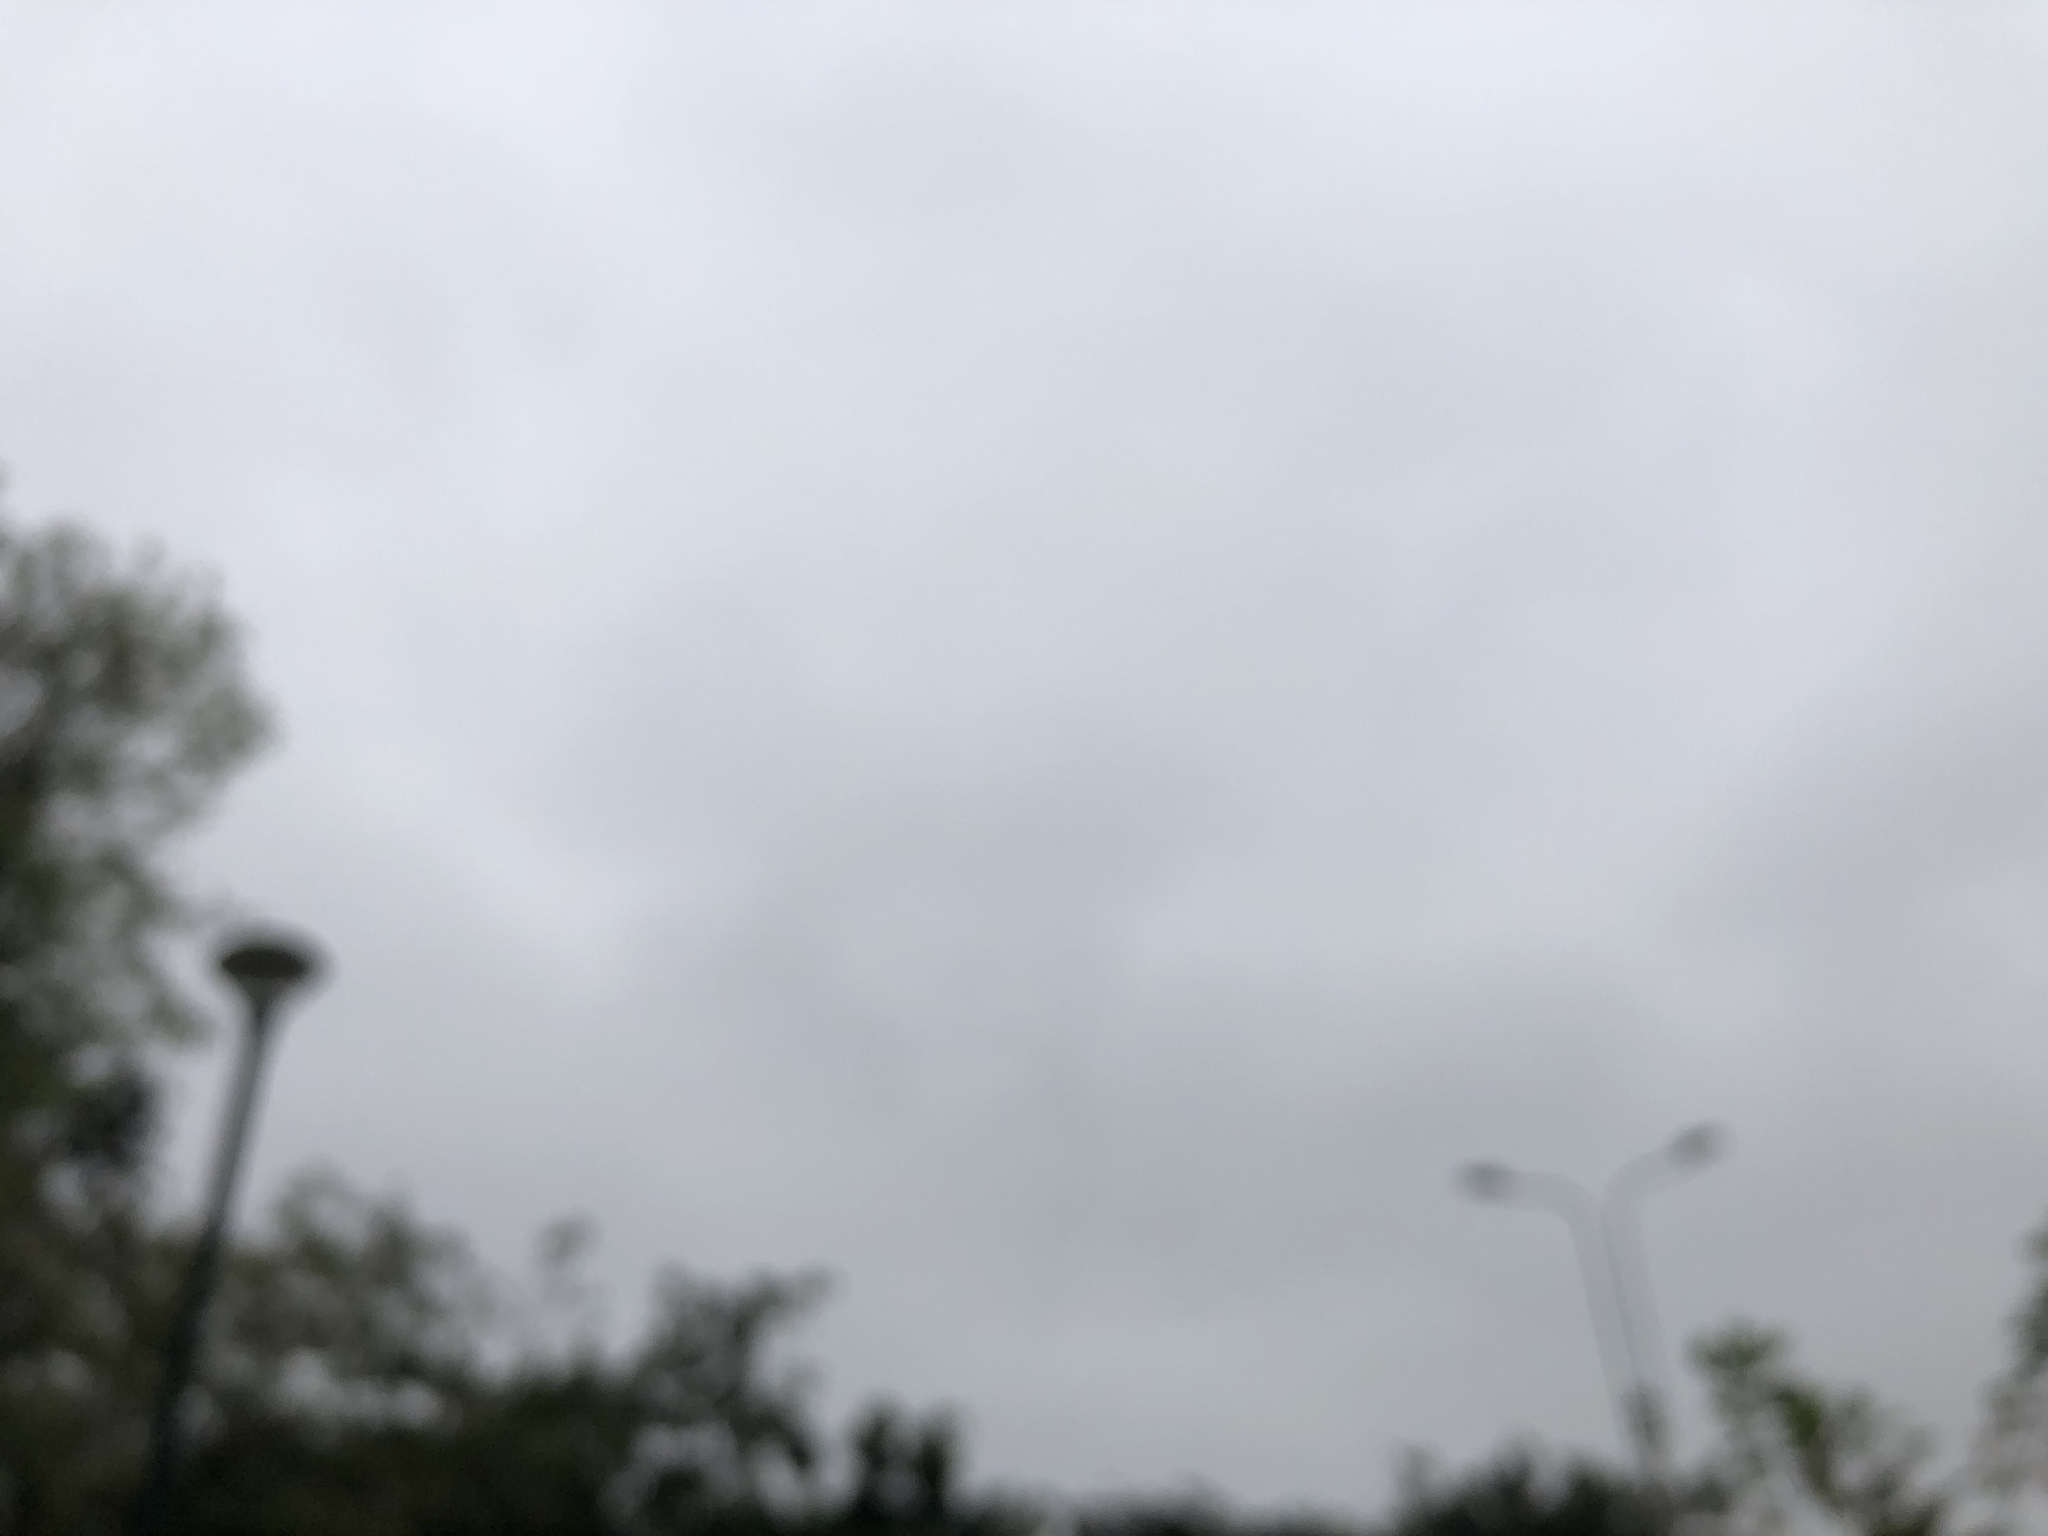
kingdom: Animalia
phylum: Chordata
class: Aves
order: Accipitriformes
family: Cathartidae
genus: Coragyps
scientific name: Coragyps atratus
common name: Black vulture
